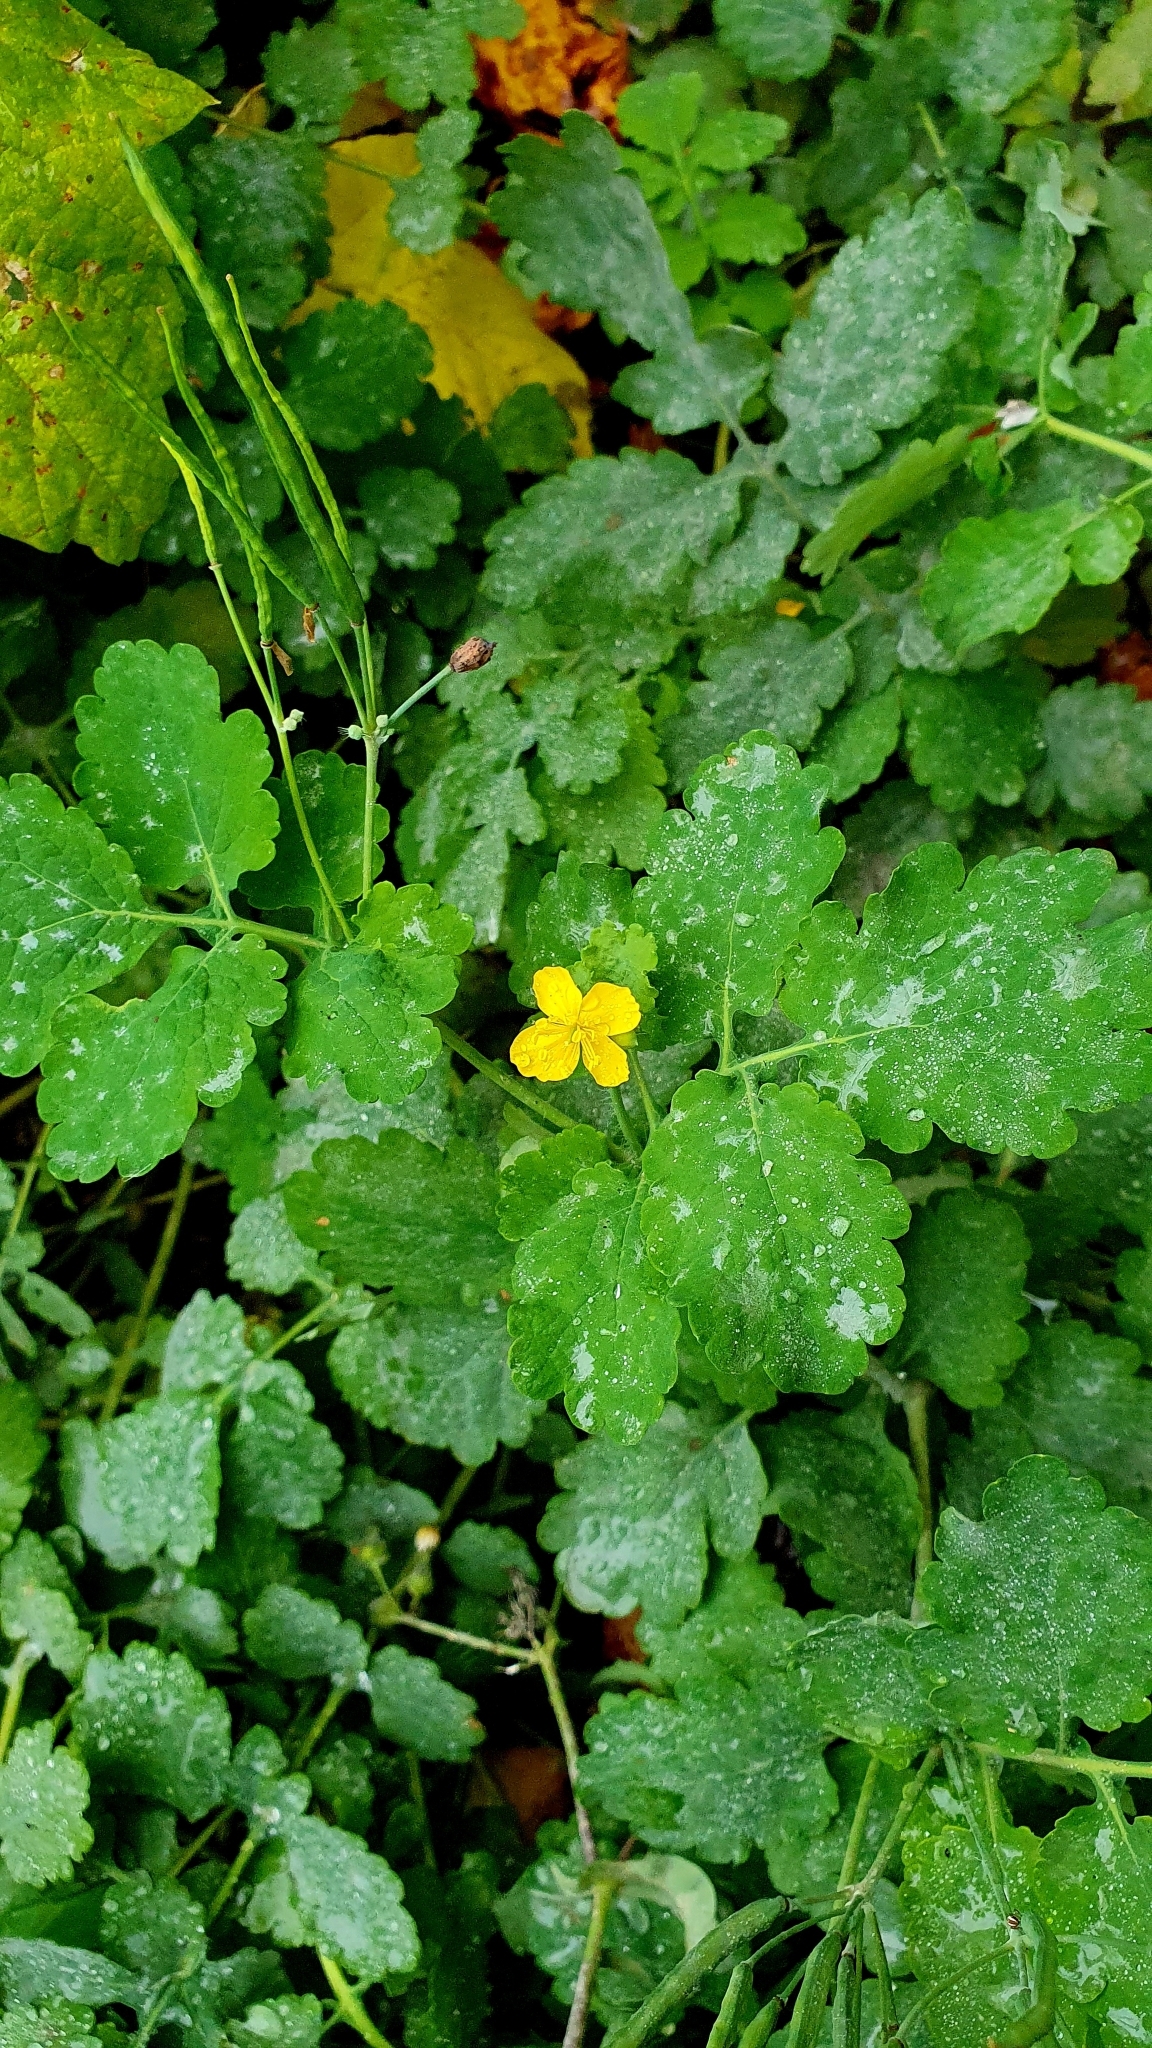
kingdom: Plantae
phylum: Tracheophyta
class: Magnoliopsida
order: Ranunculales
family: Papaveraceae
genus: Chelidonium
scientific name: Chelidonium majus
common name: Greater celandine
